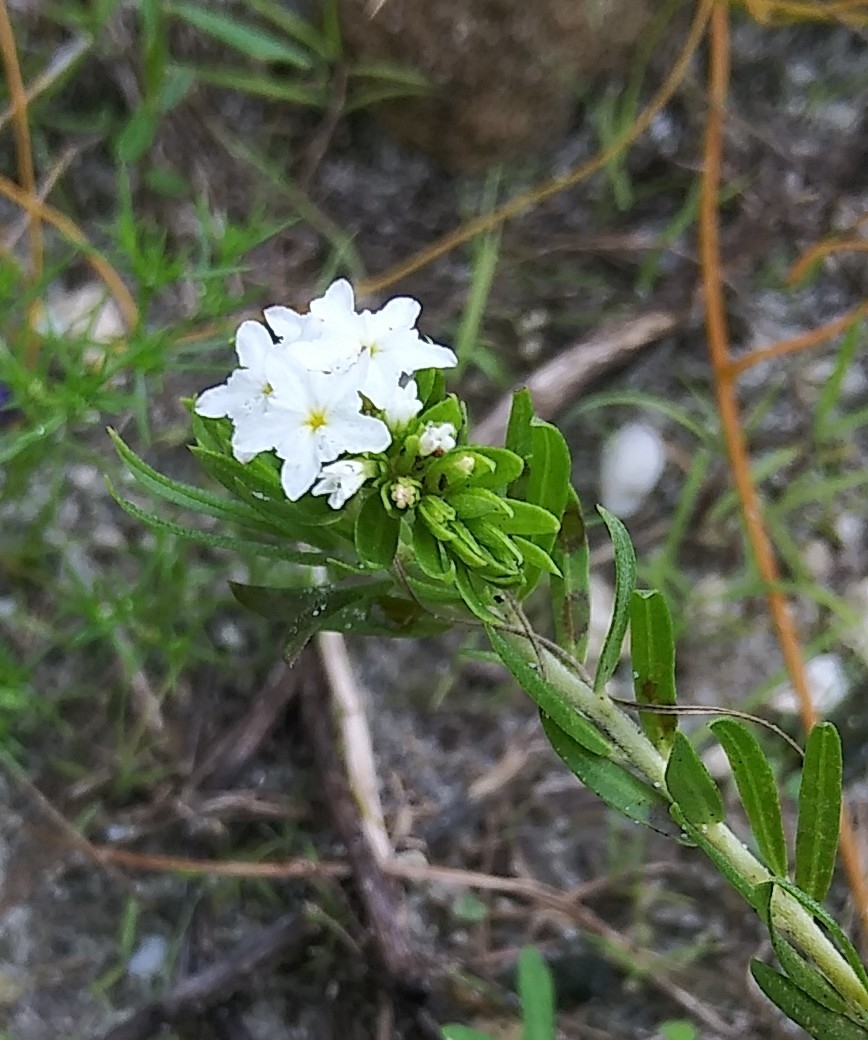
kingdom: Plantae
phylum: Tracheophyta
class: Magnoliopsida
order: Boraginales
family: Heliotropiaceae
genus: Euploca
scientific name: Euploca polyphylla
